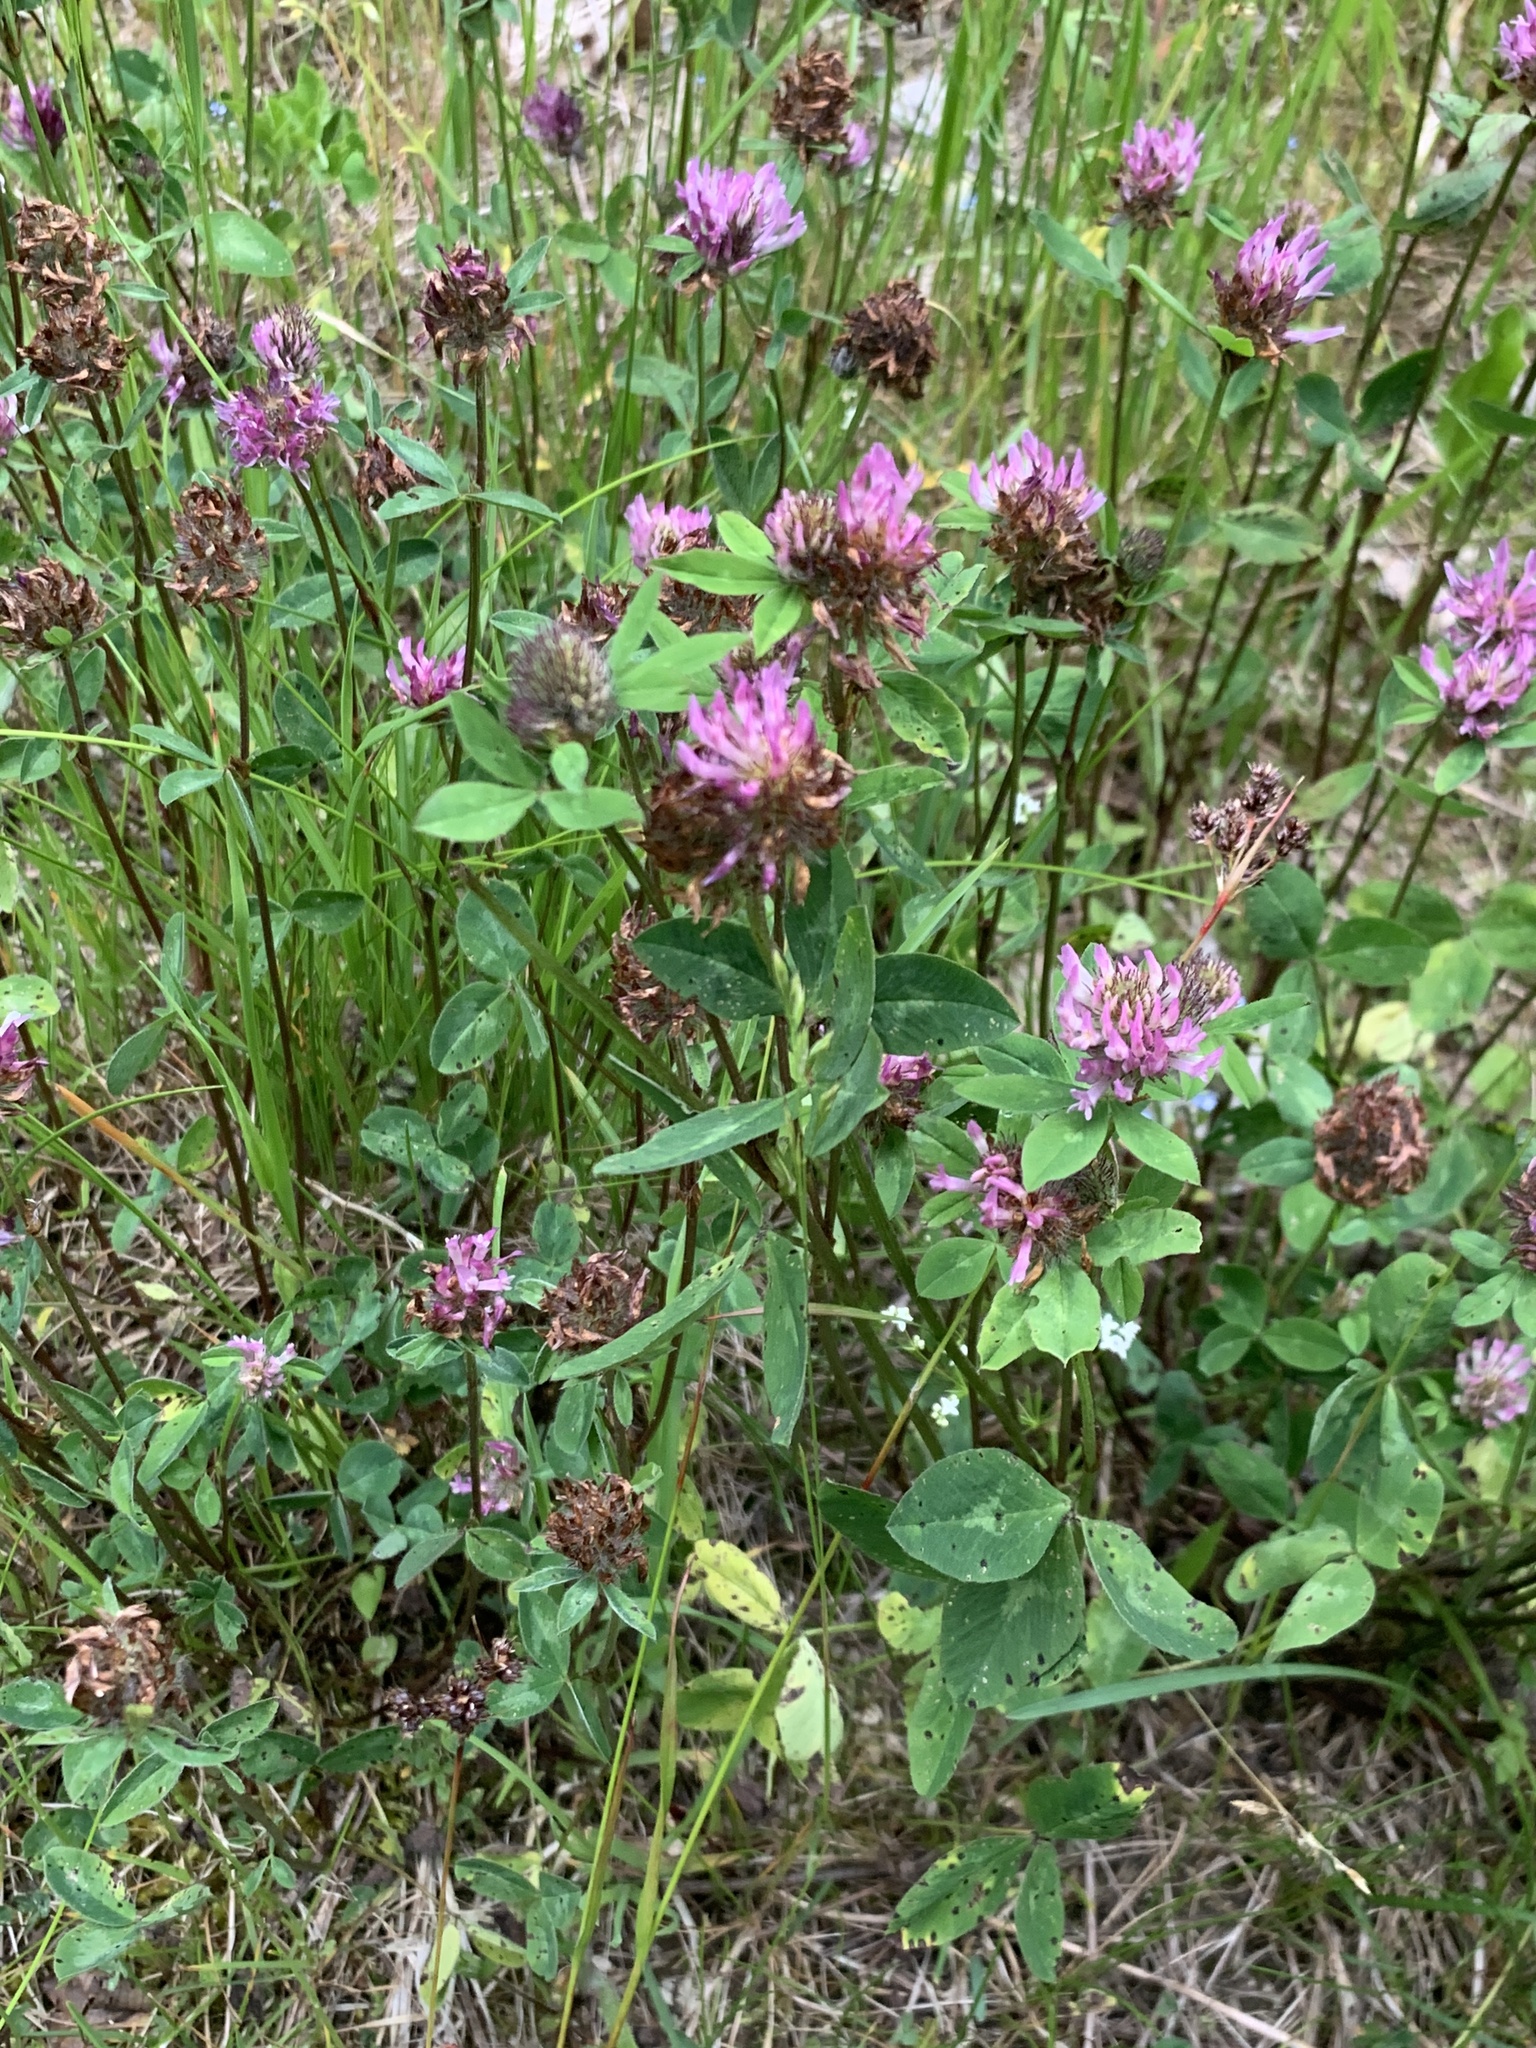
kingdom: Plantae
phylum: Tracheophyta
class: Magnoliopsida
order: Fabales
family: Fabaceae
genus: Trifolium
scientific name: Trifolium pratense
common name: Red clover
